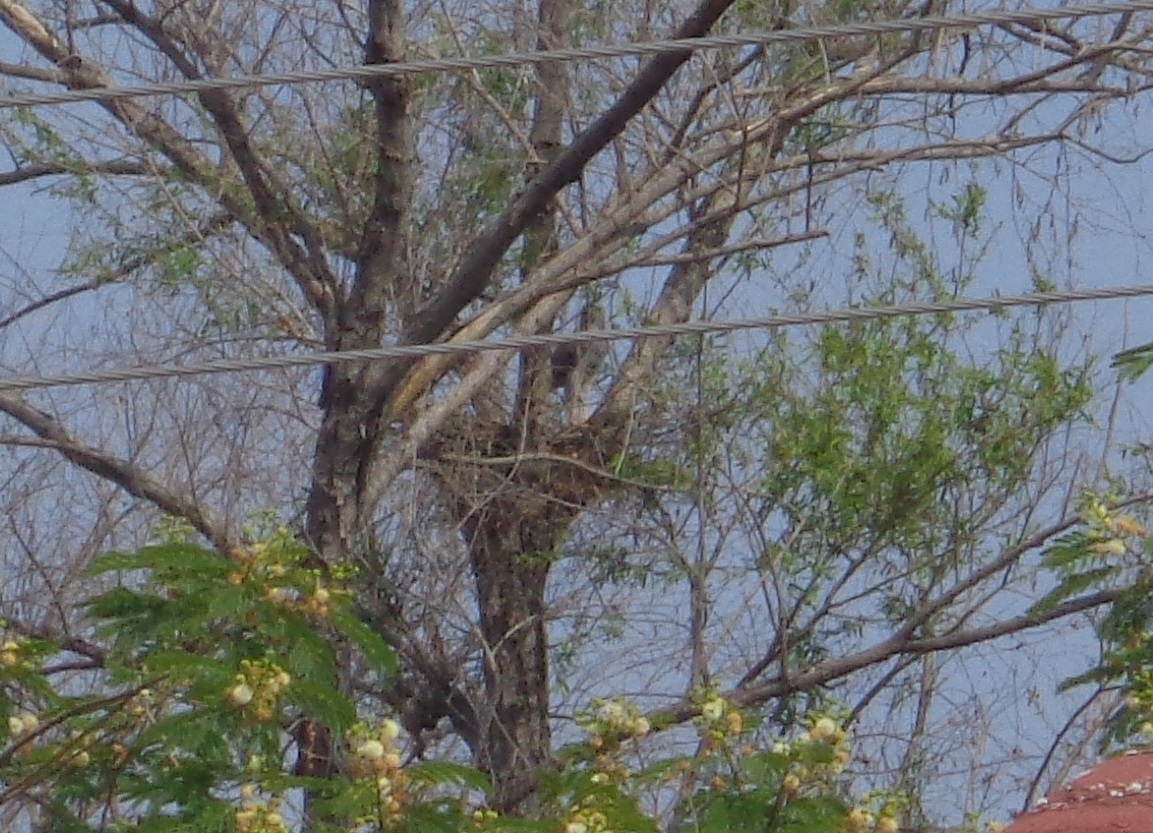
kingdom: Animalia
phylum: Chordata
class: Aves
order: Accipitriformes
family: Accipitridae
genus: Buteo
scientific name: Buteo nitidus
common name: Grey-lined hawk
